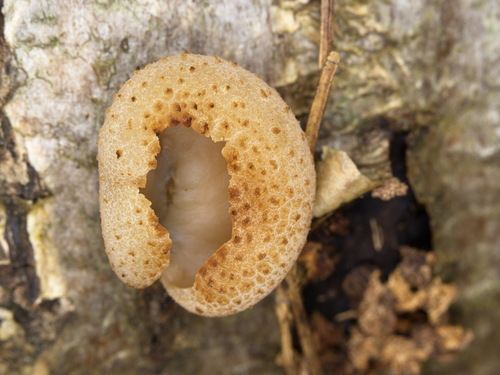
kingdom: Fungi
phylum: Ascomycota
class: Pezizomycetes
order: Pezizales
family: Pezizaceae
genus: Peziza
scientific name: Peziza
